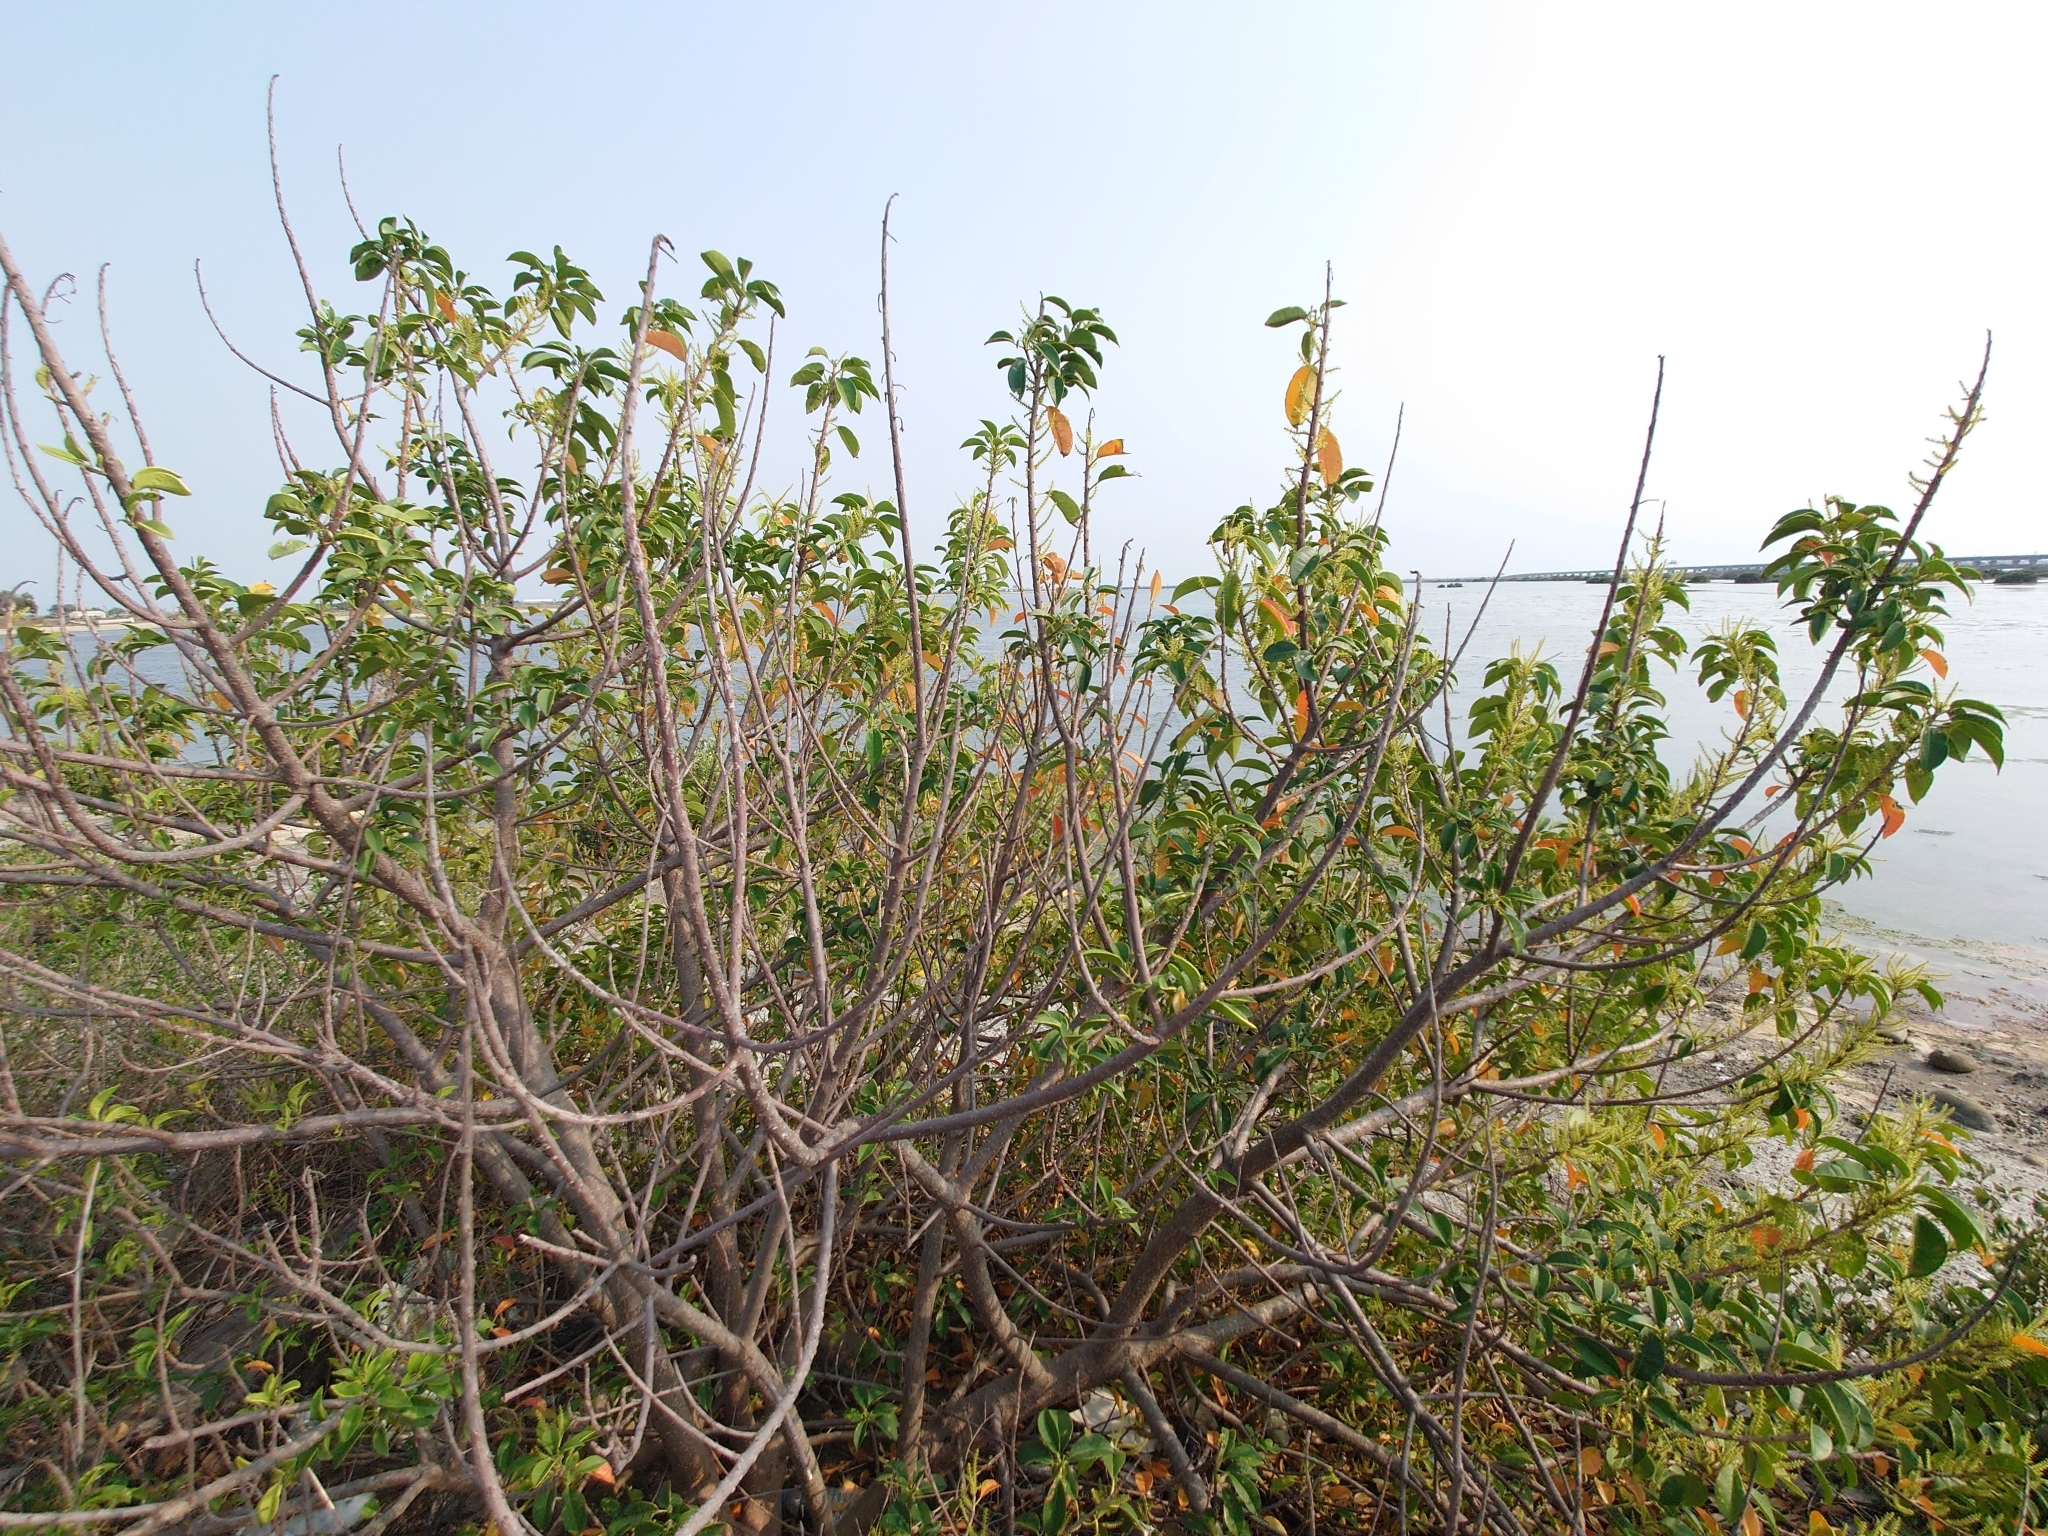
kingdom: Plantae
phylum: Tracheophyta
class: Magnoliopsida
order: Malpighiales
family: Euphorbiaceae
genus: Excoecaria
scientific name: Excoecaria agallocha
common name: River poisontree
